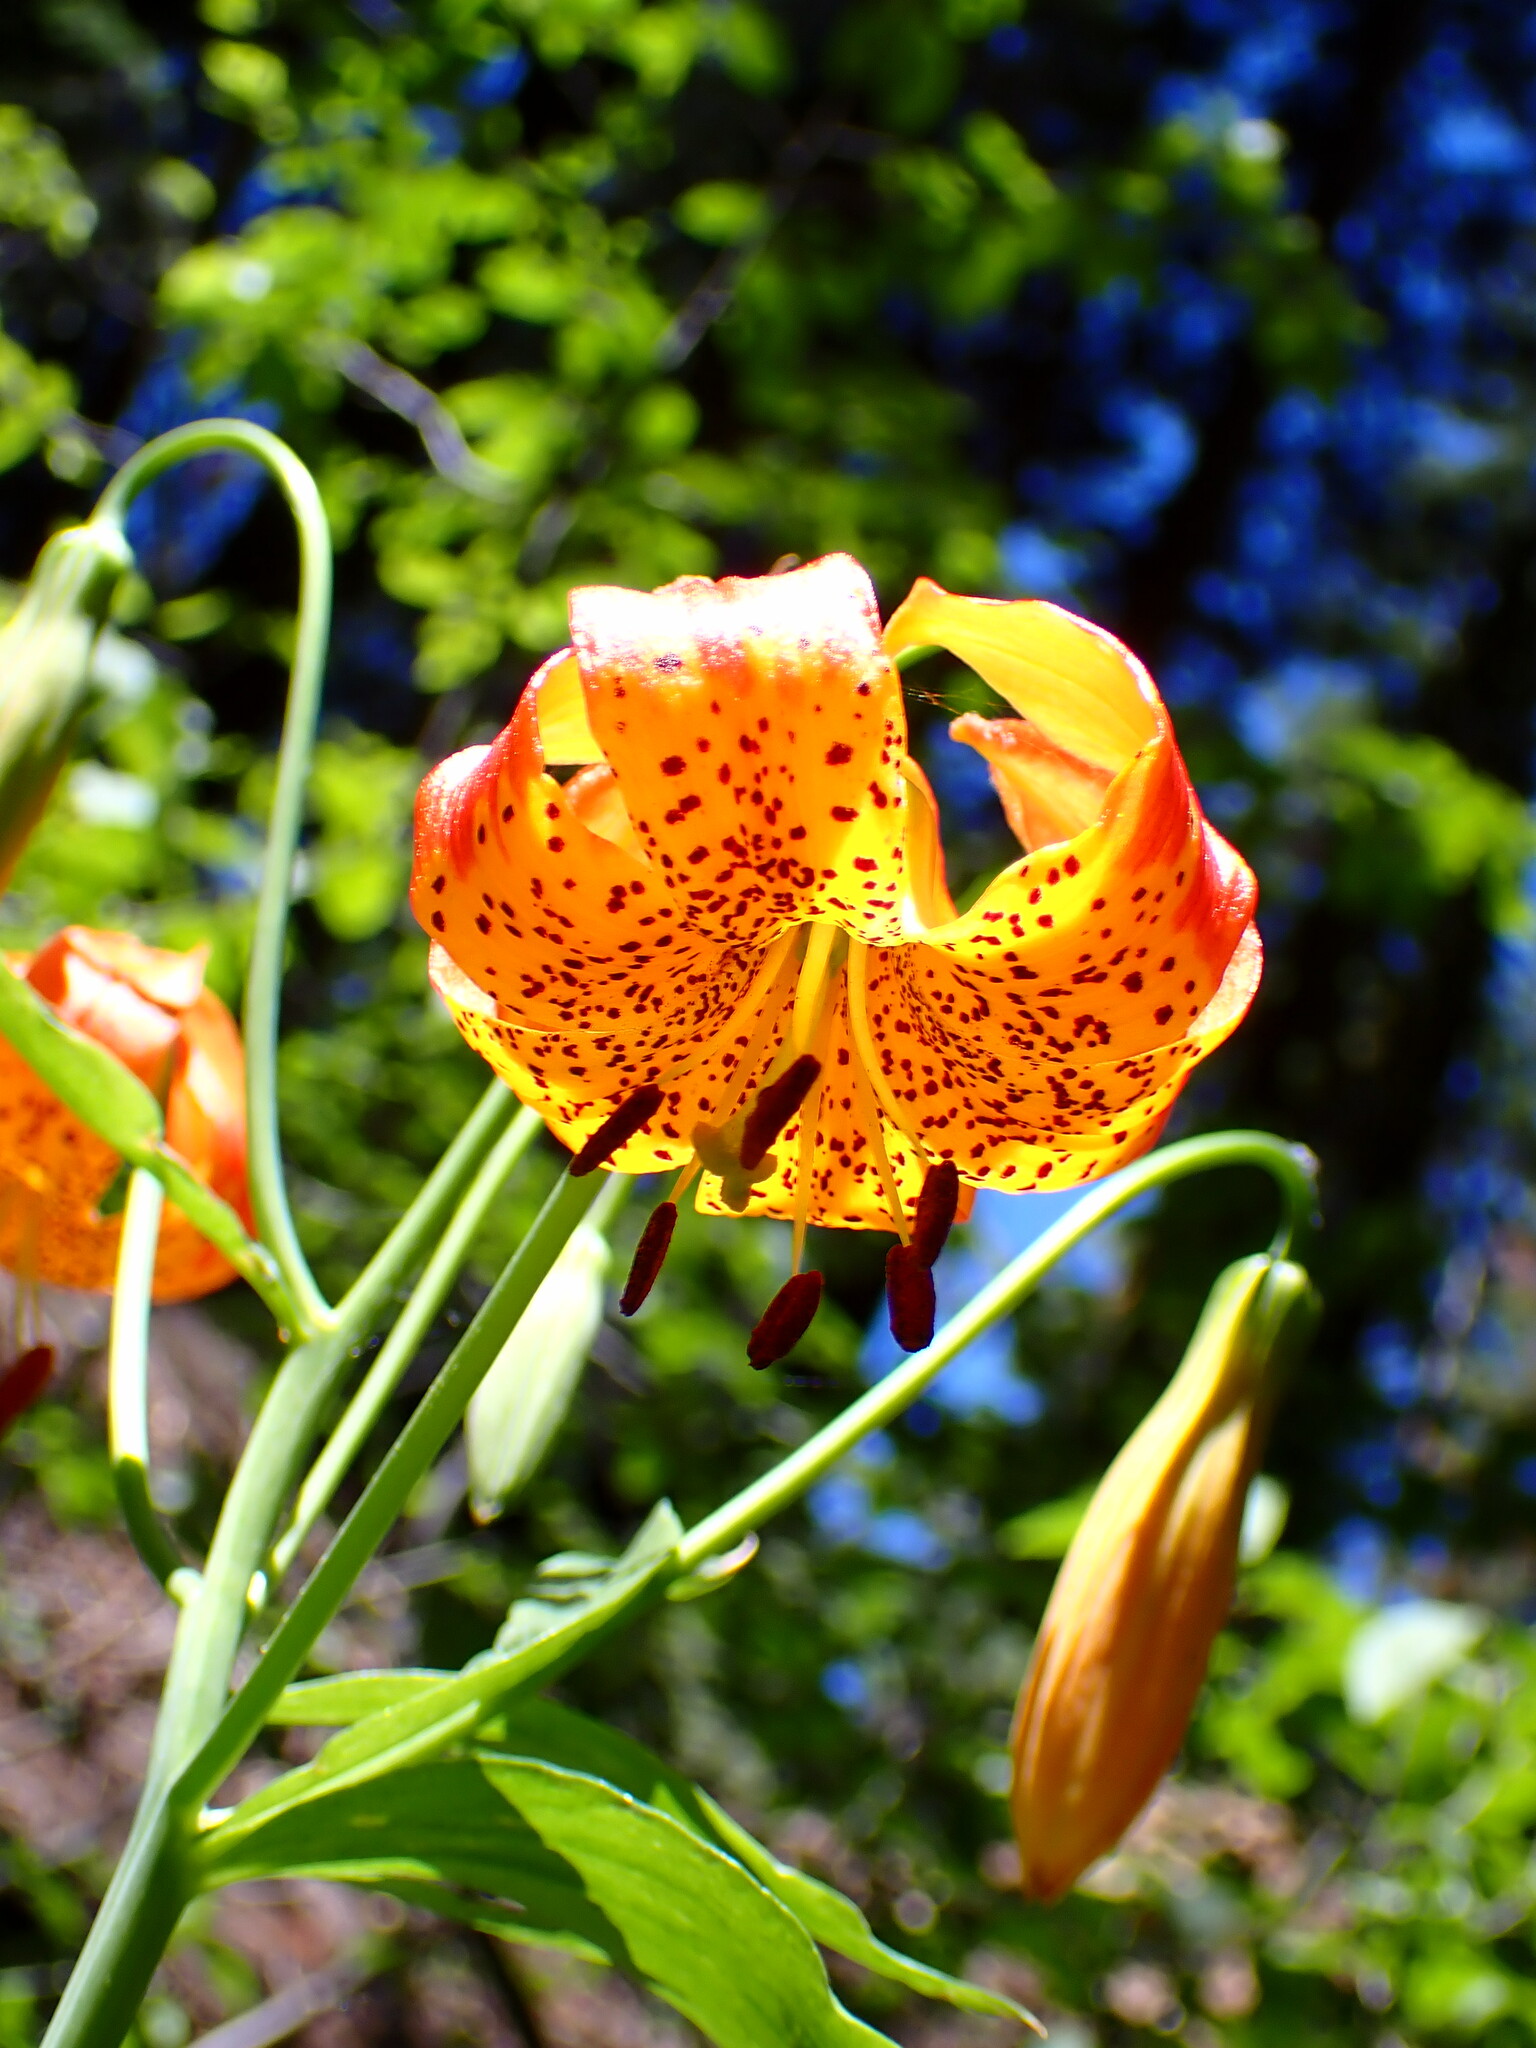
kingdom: Plantae
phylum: Tracheophyta
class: Liliopsida
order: Liliales
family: Liliaceae
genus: Lilium
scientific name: Lilium pardalinum
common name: Panther lily
